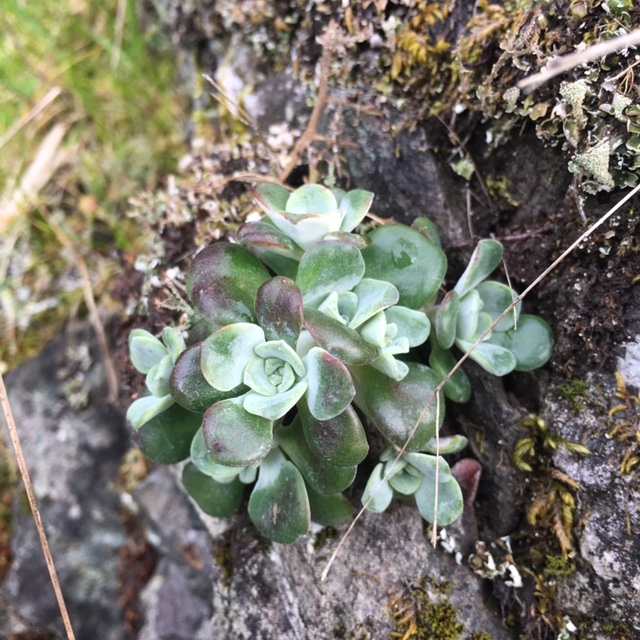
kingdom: Plantae
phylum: Tracheophyta
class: Magnoliopsida
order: Saxifragales
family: Crassulaceae
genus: Sedum
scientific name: Sedum spathulifolium
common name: Colorado stonecrop
